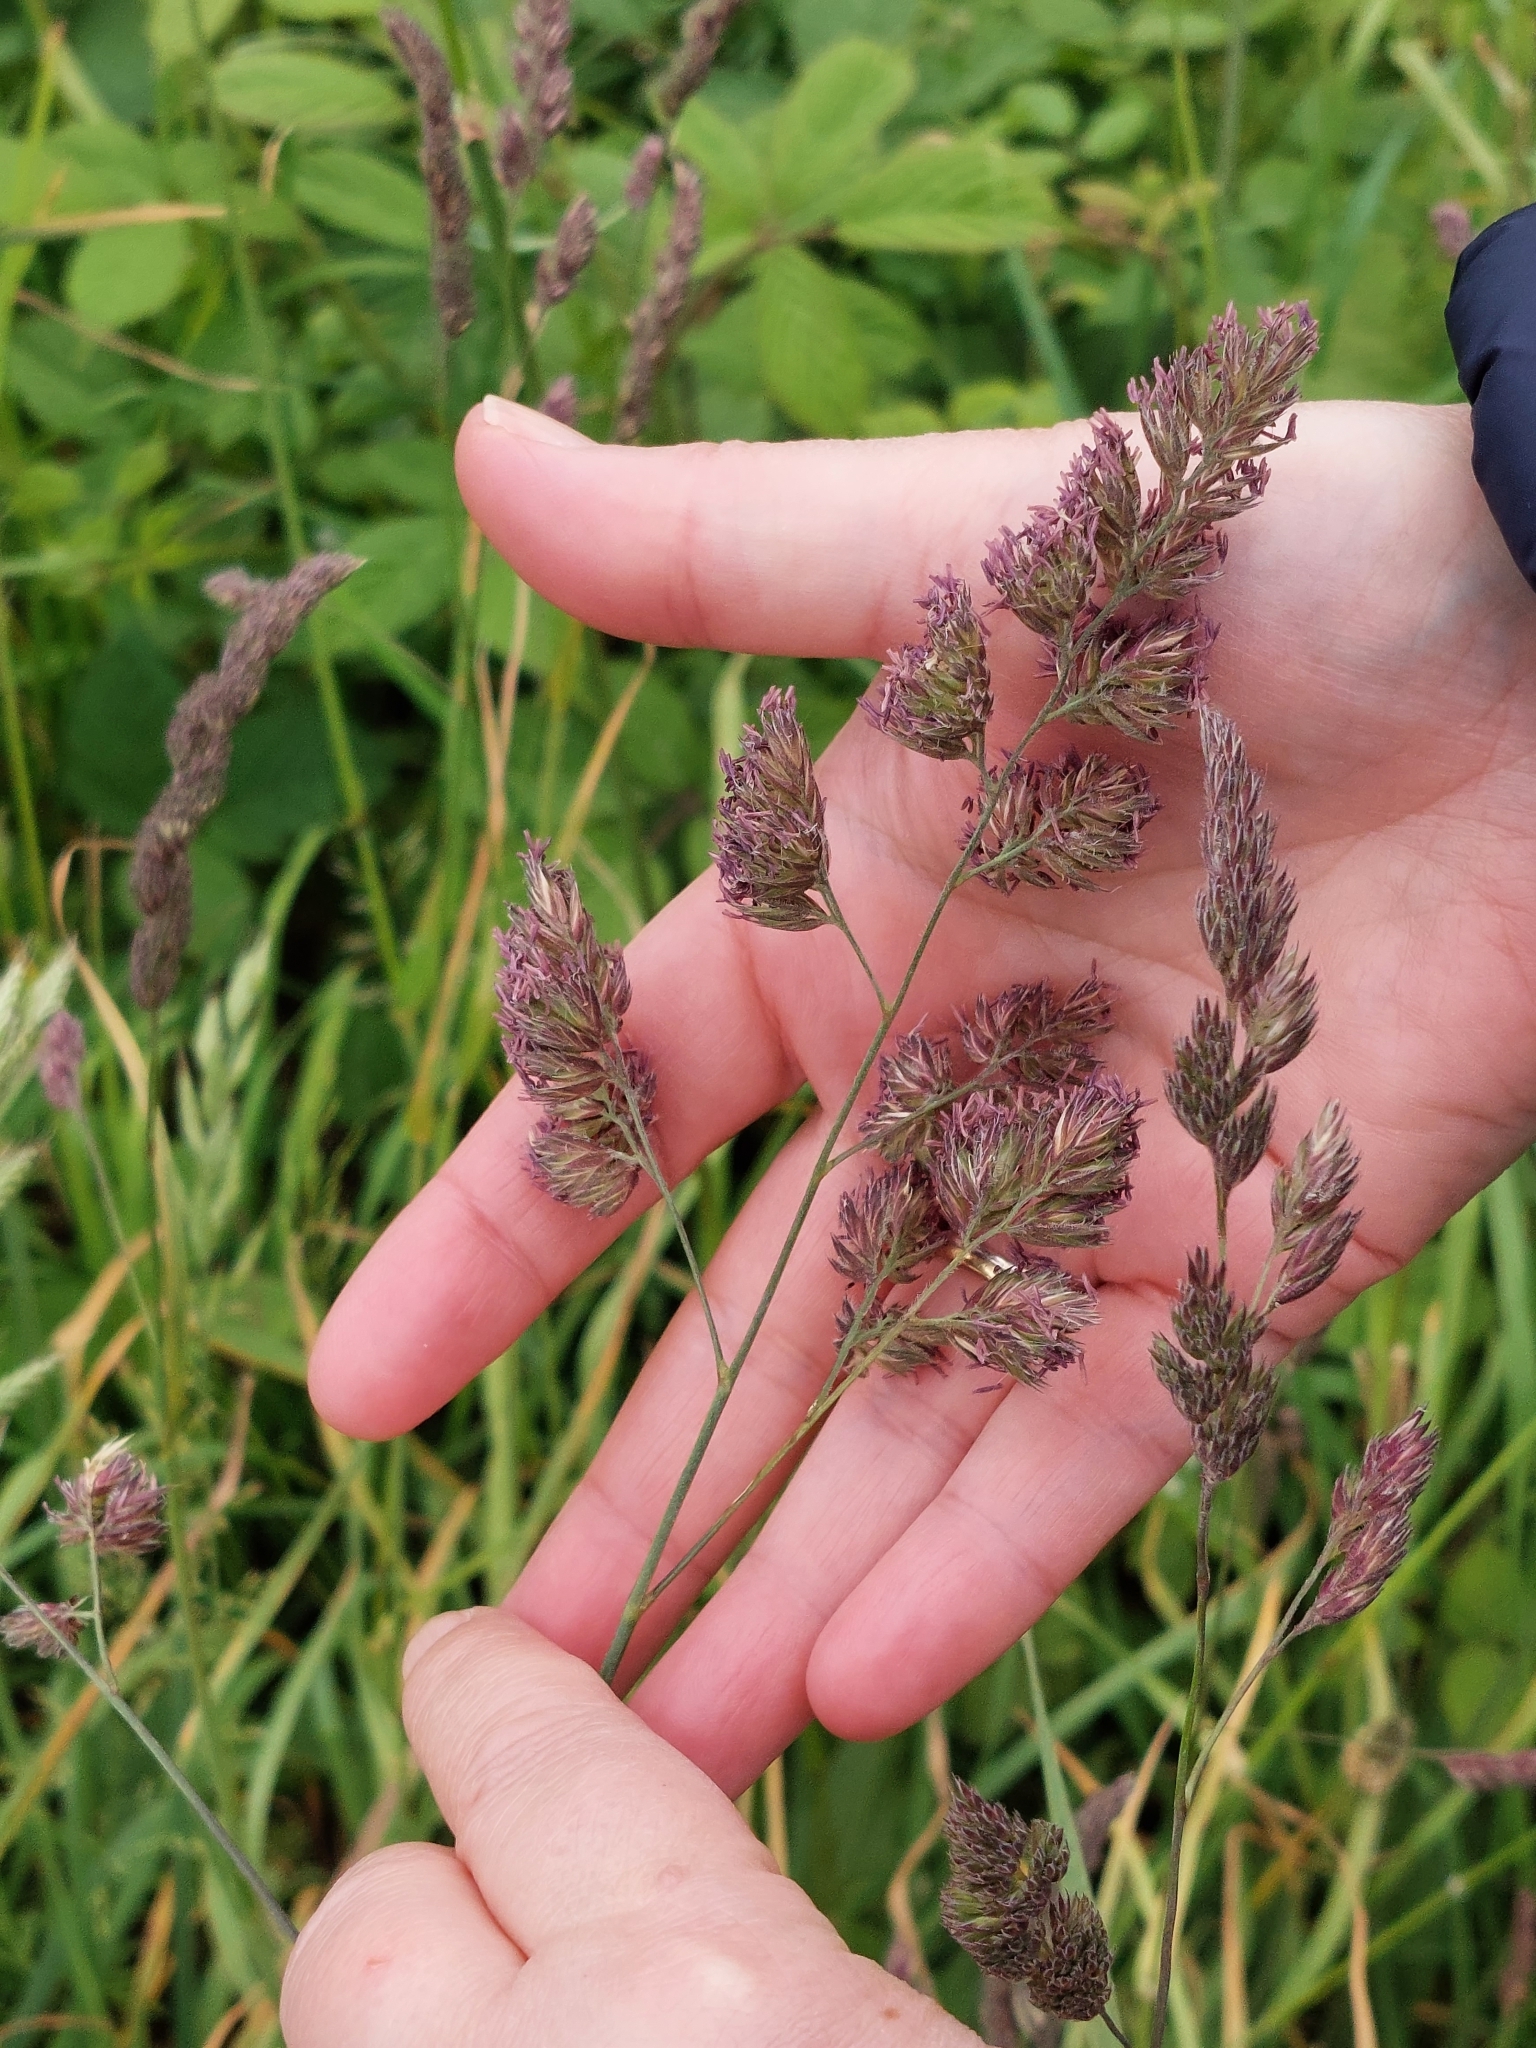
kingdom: Plantae
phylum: Tracheophyta
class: Liliopsida
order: Poales
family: Poaceae
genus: Dactylis
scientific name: Dactylis glomerata
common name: Orchardgrass
